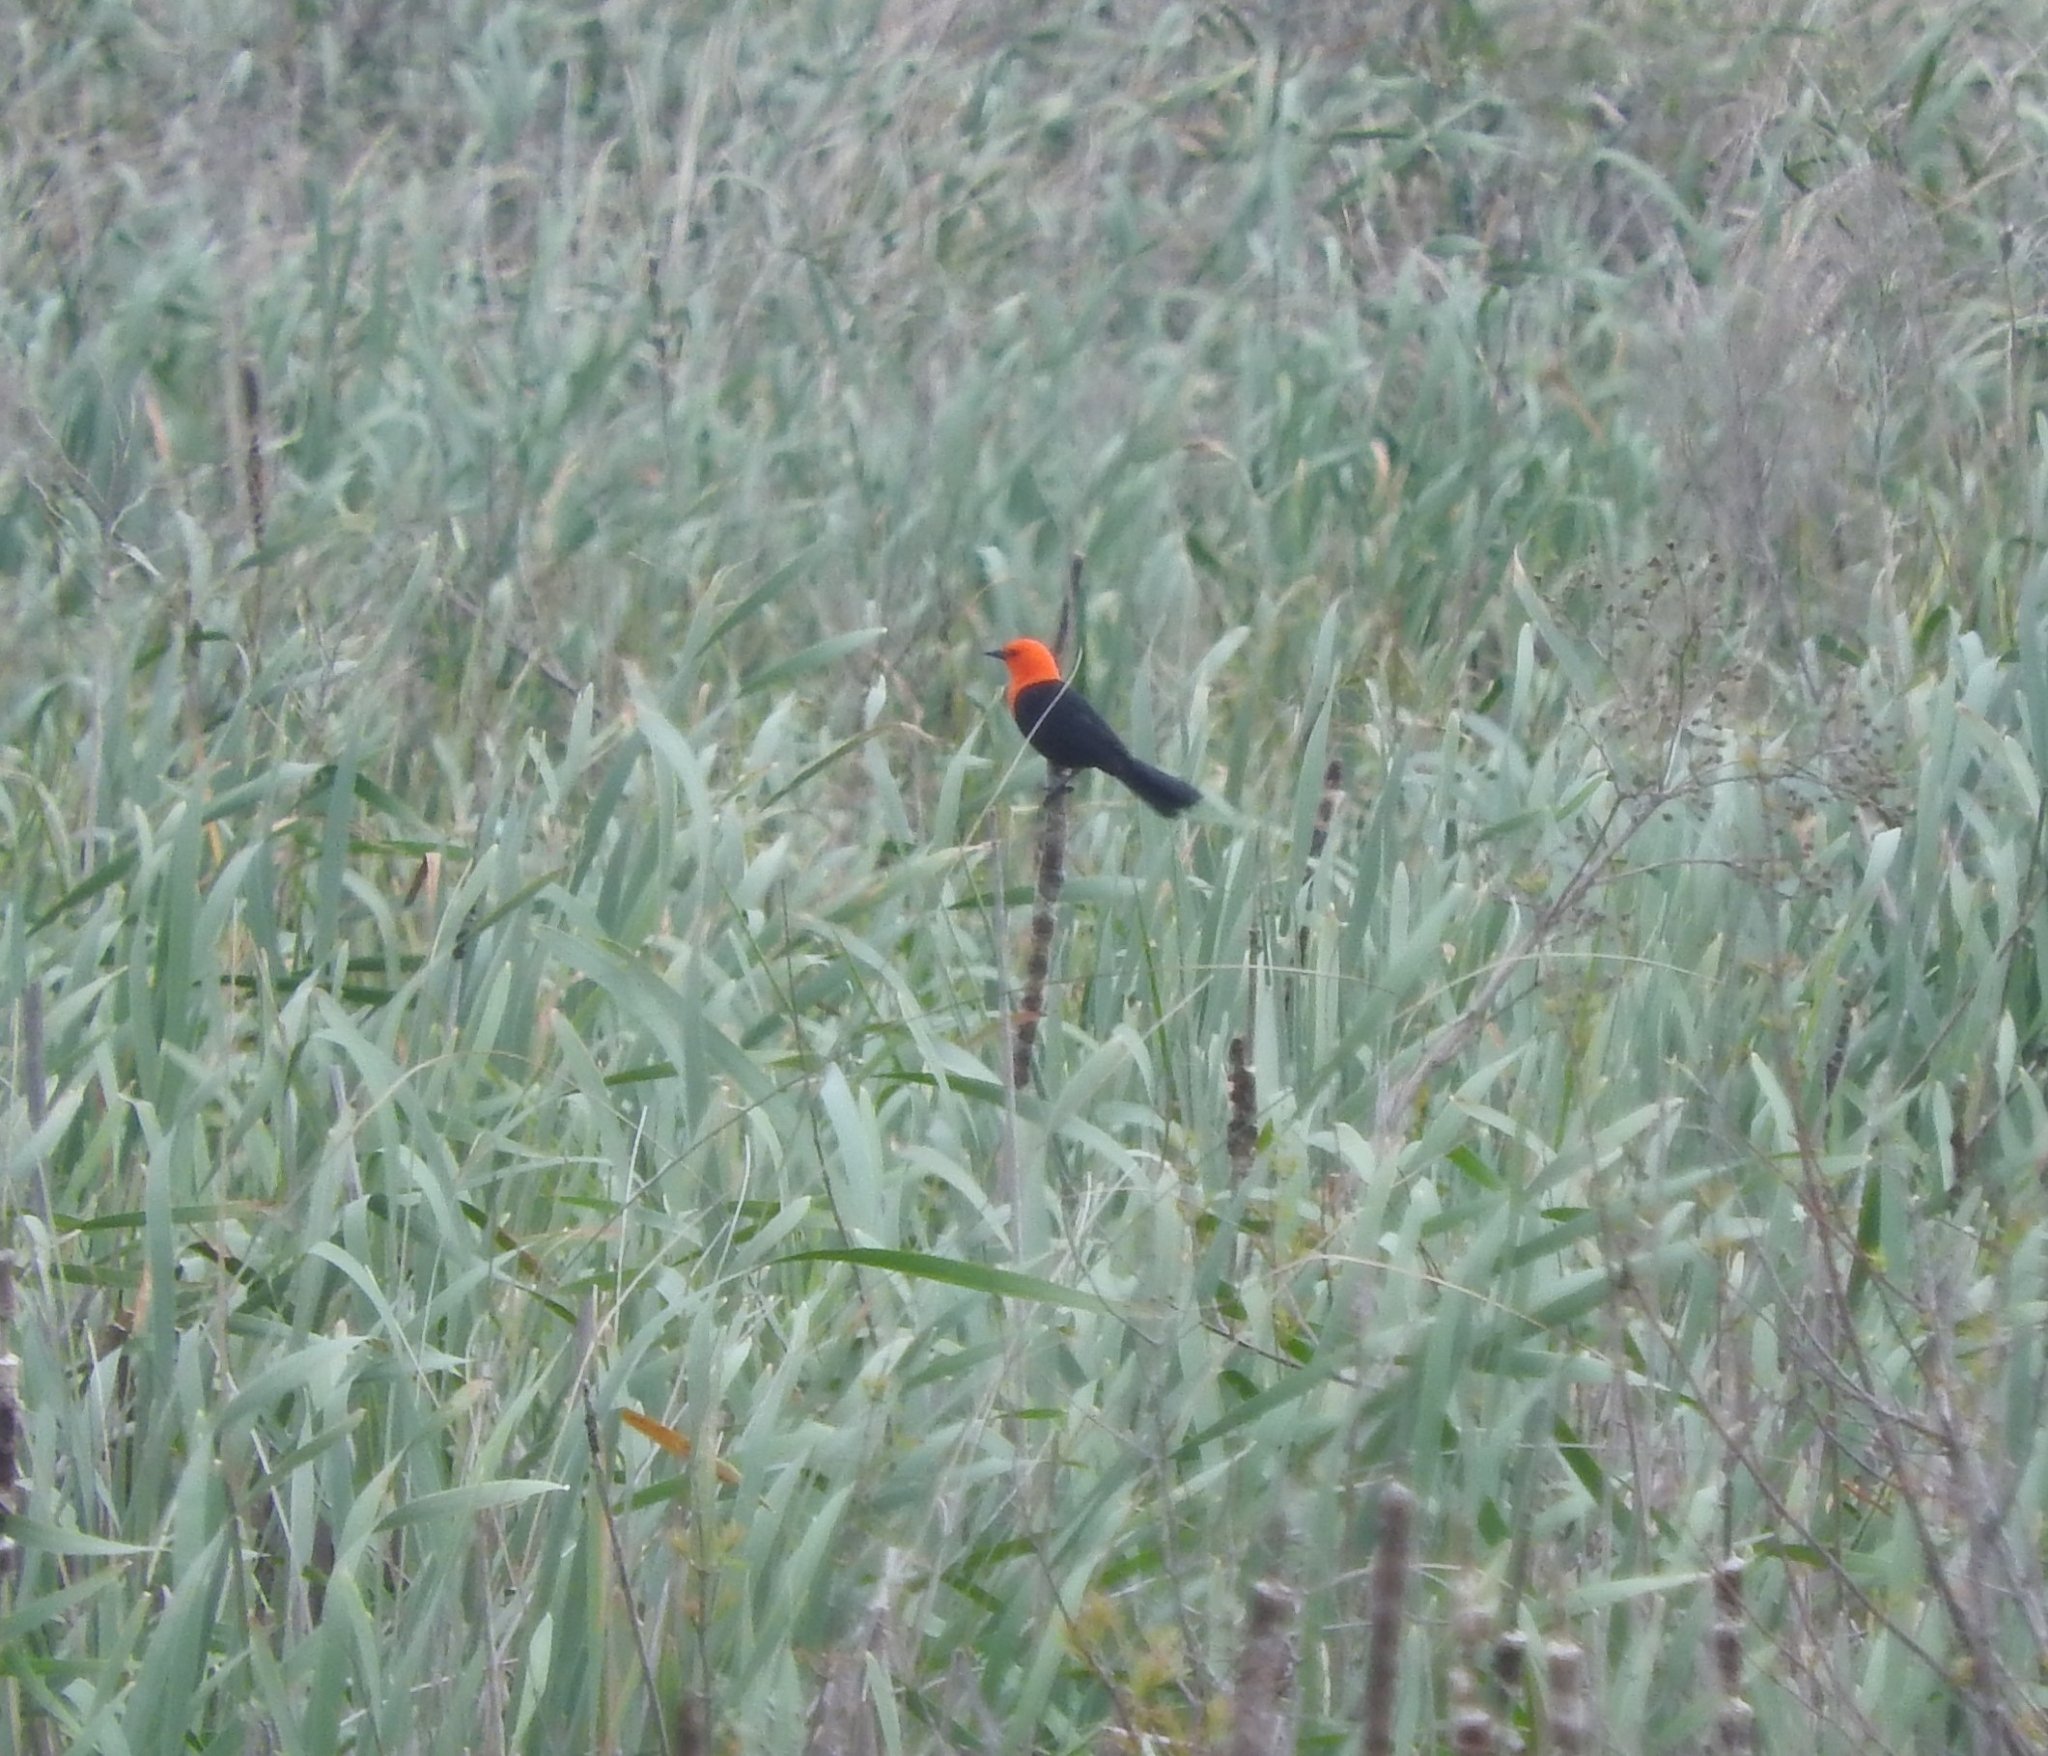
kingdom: Animalia
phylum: Chordata
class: Aves
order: Passeriformes
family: Icteridae
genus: Amblyramphus
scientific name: Amblyramphus holosericeus
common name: Scarlet-headed blackbird
